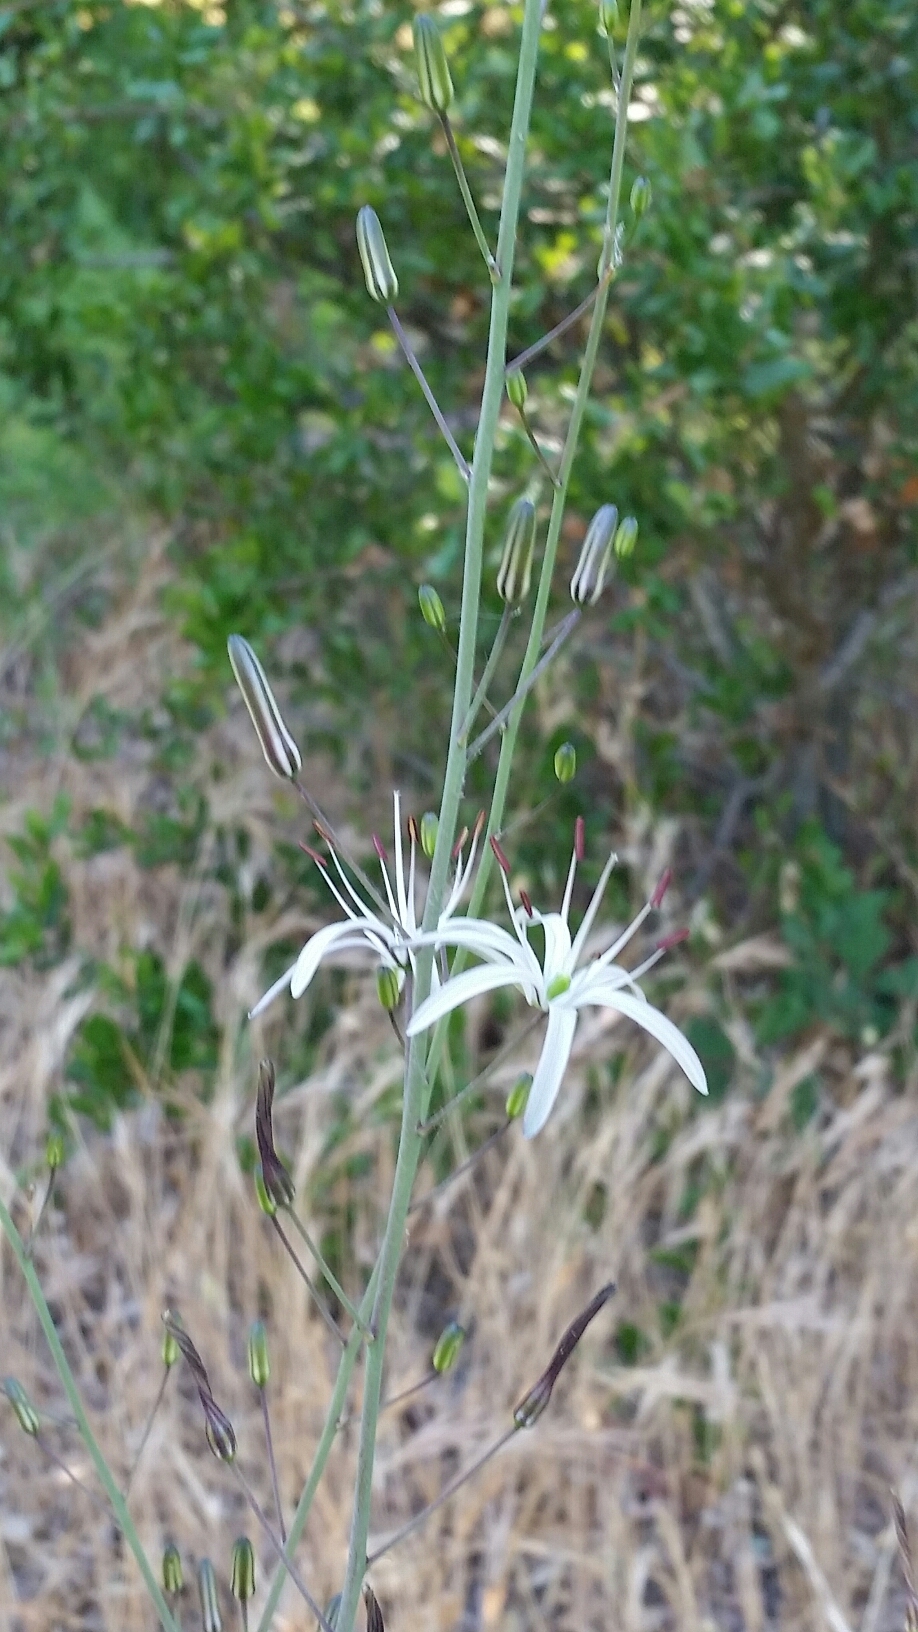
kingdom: Plantae
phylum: Tracheophyta
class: Liliopsida
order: Asparagales
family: Asparagaceae
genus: Chlorogalum
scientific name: Chlorogalum pomeridianum
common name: Amole
